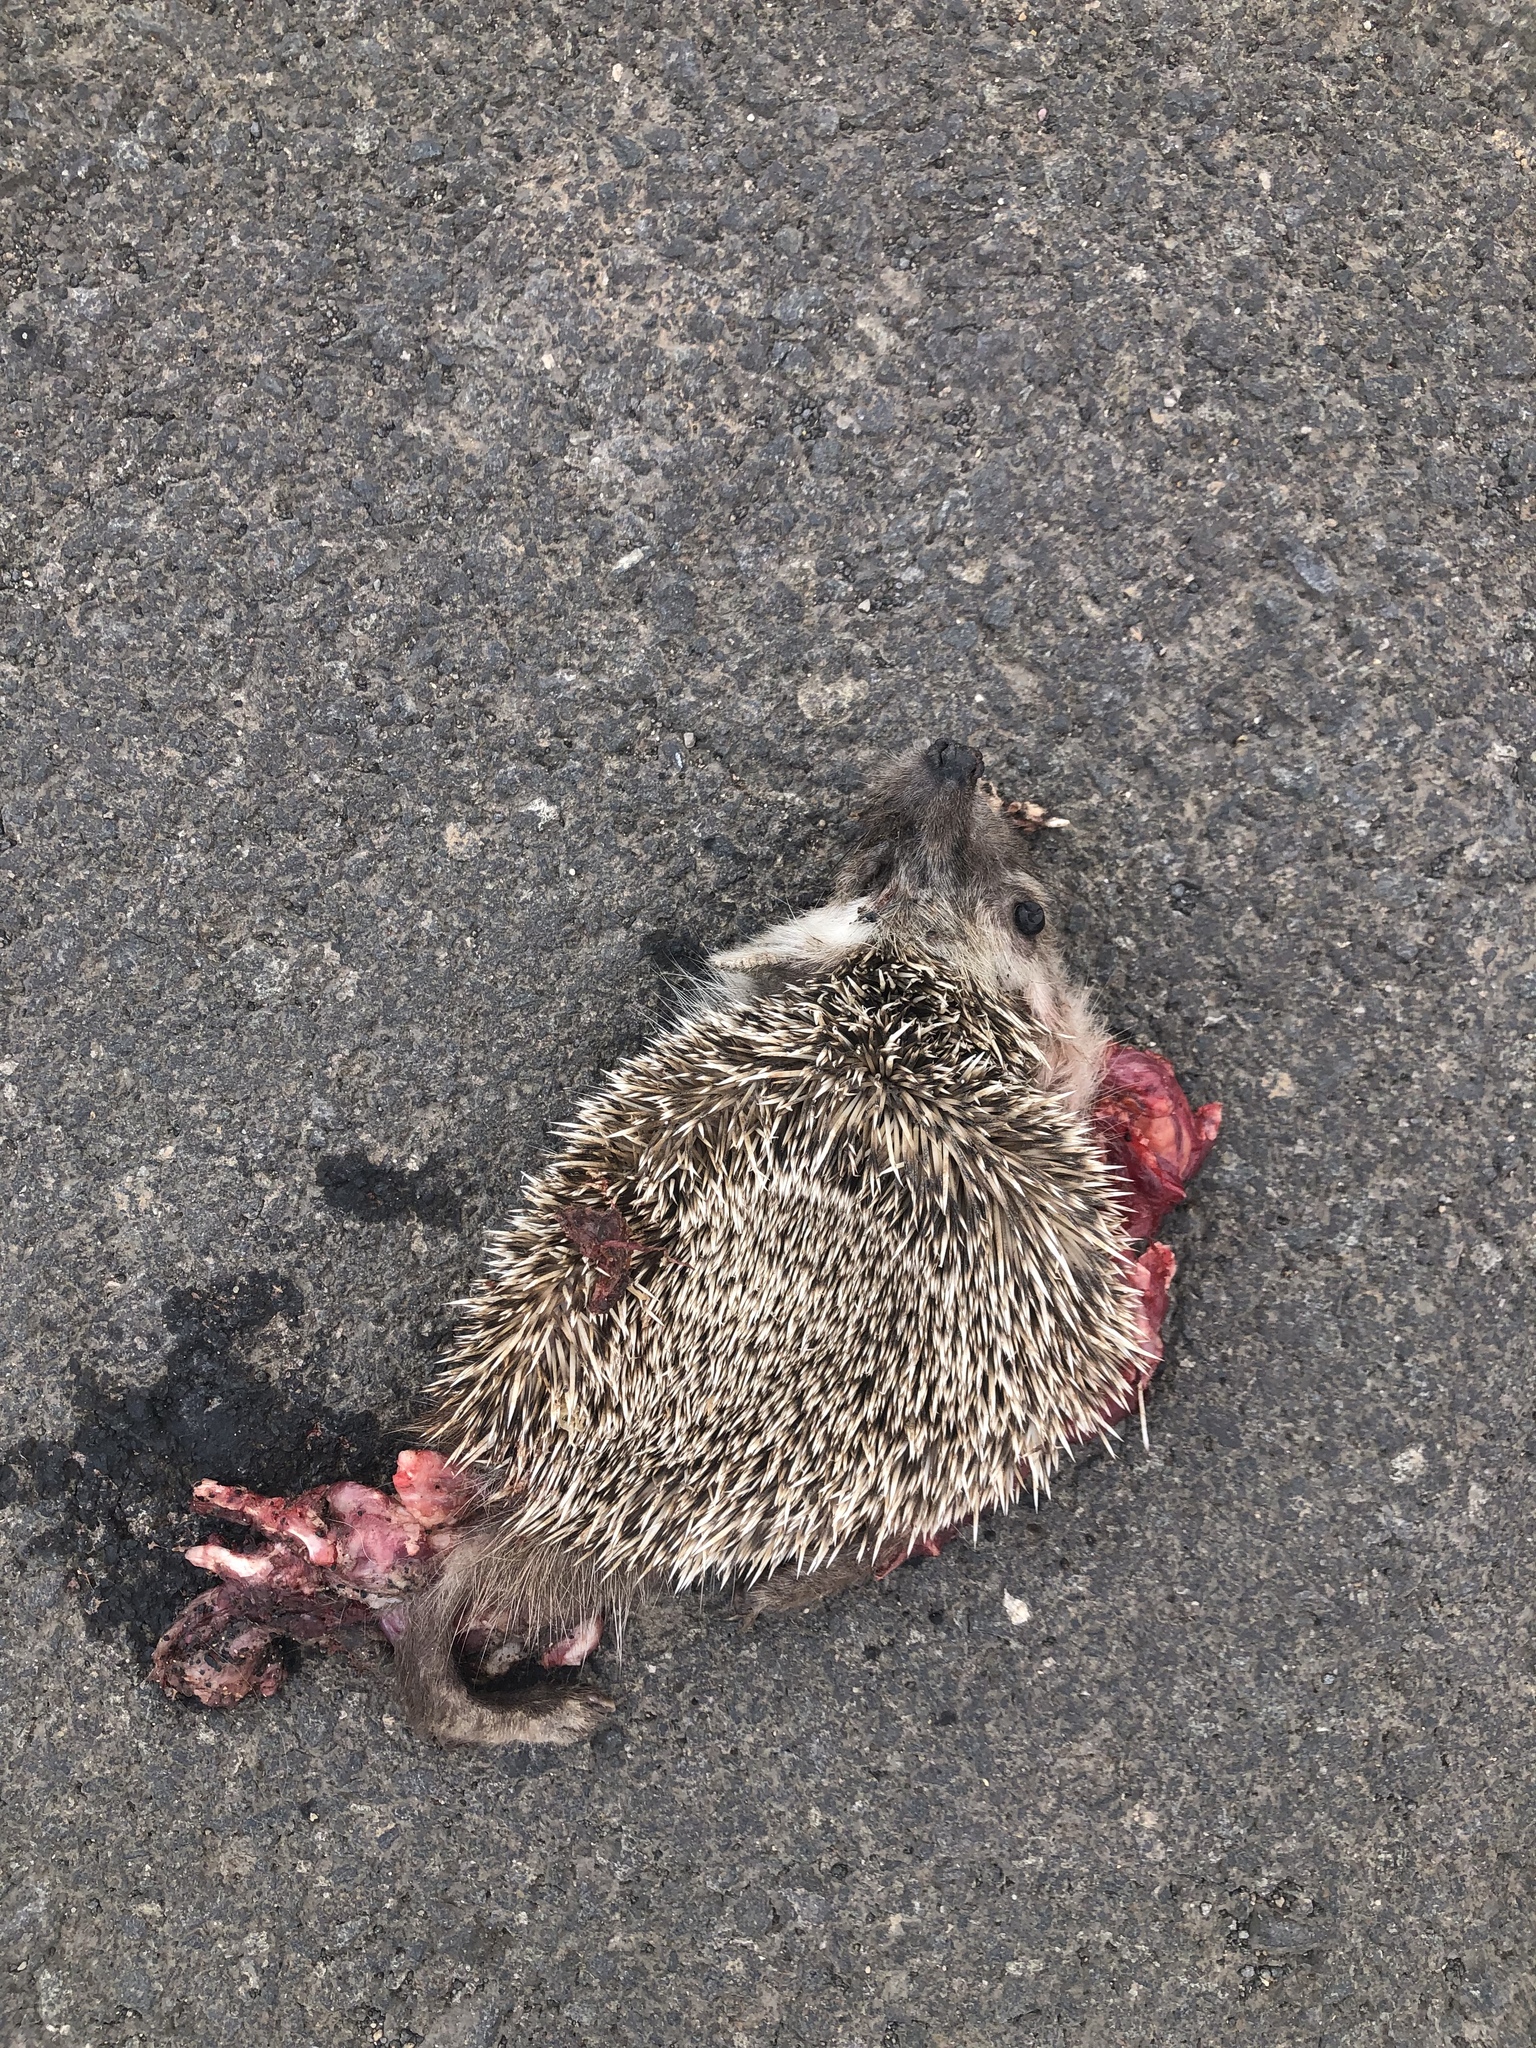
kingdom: Animalia
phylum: Chordata
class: Mammalia
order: Erinaceomorpha
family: Erinaceidae
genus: Atelerix
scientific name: Atelerix algirus
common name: North african hedgehog
